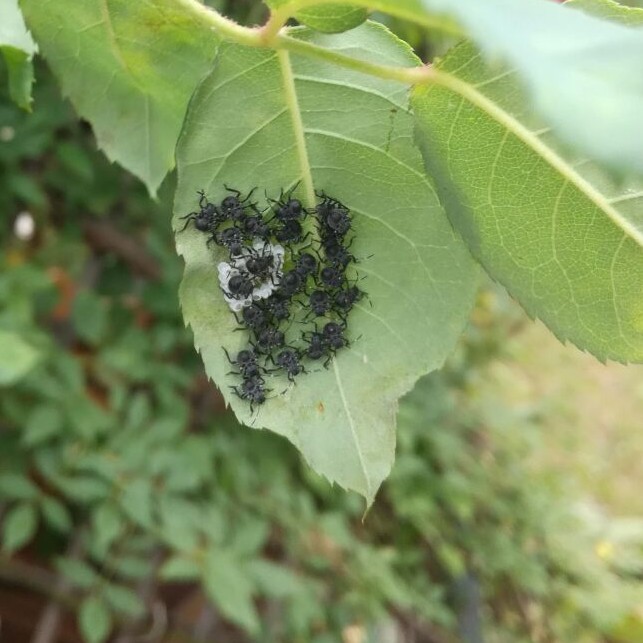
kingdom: Animalia
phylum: Arthropoda
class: Insecta
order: Hemiptera
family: Pentatomidae
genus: Halyomorpha
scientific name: Halyomorpha halys
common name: Brown marmorated stink bug
